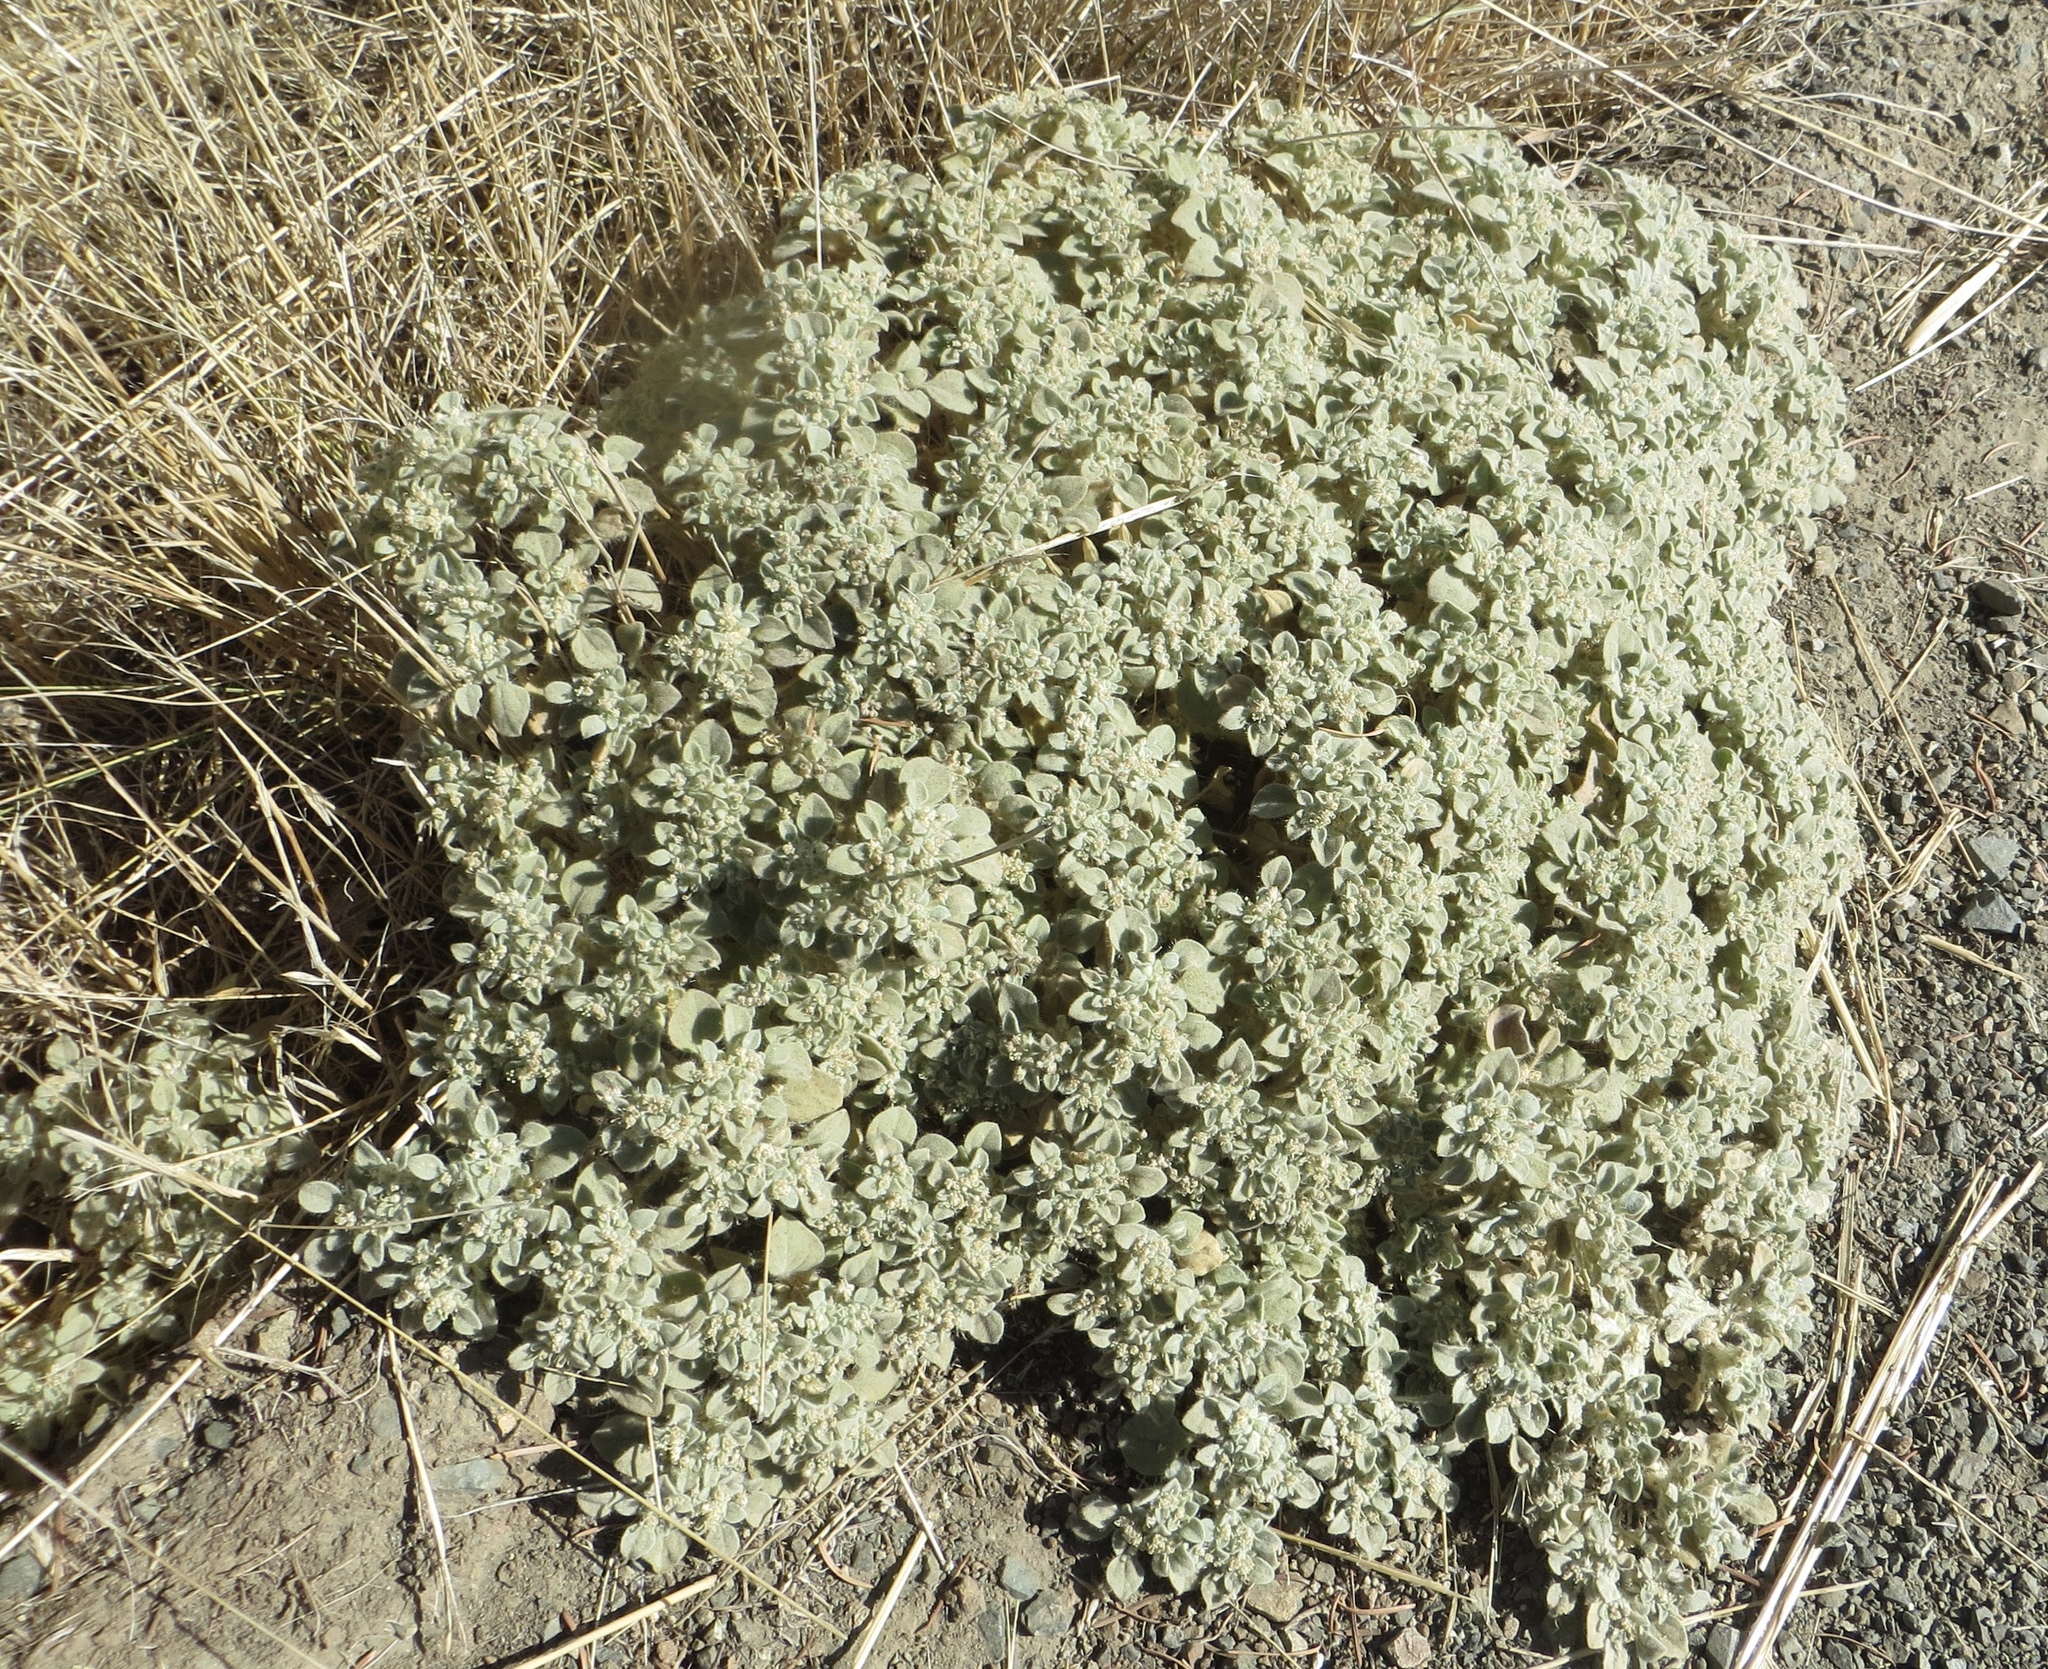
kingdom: Plantae
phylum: Tracheophyta
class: Magnoliopsida
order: Malpighiales
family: Euphorbiaceae
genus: Croton
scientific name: Croton setiger
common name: Dove weed
